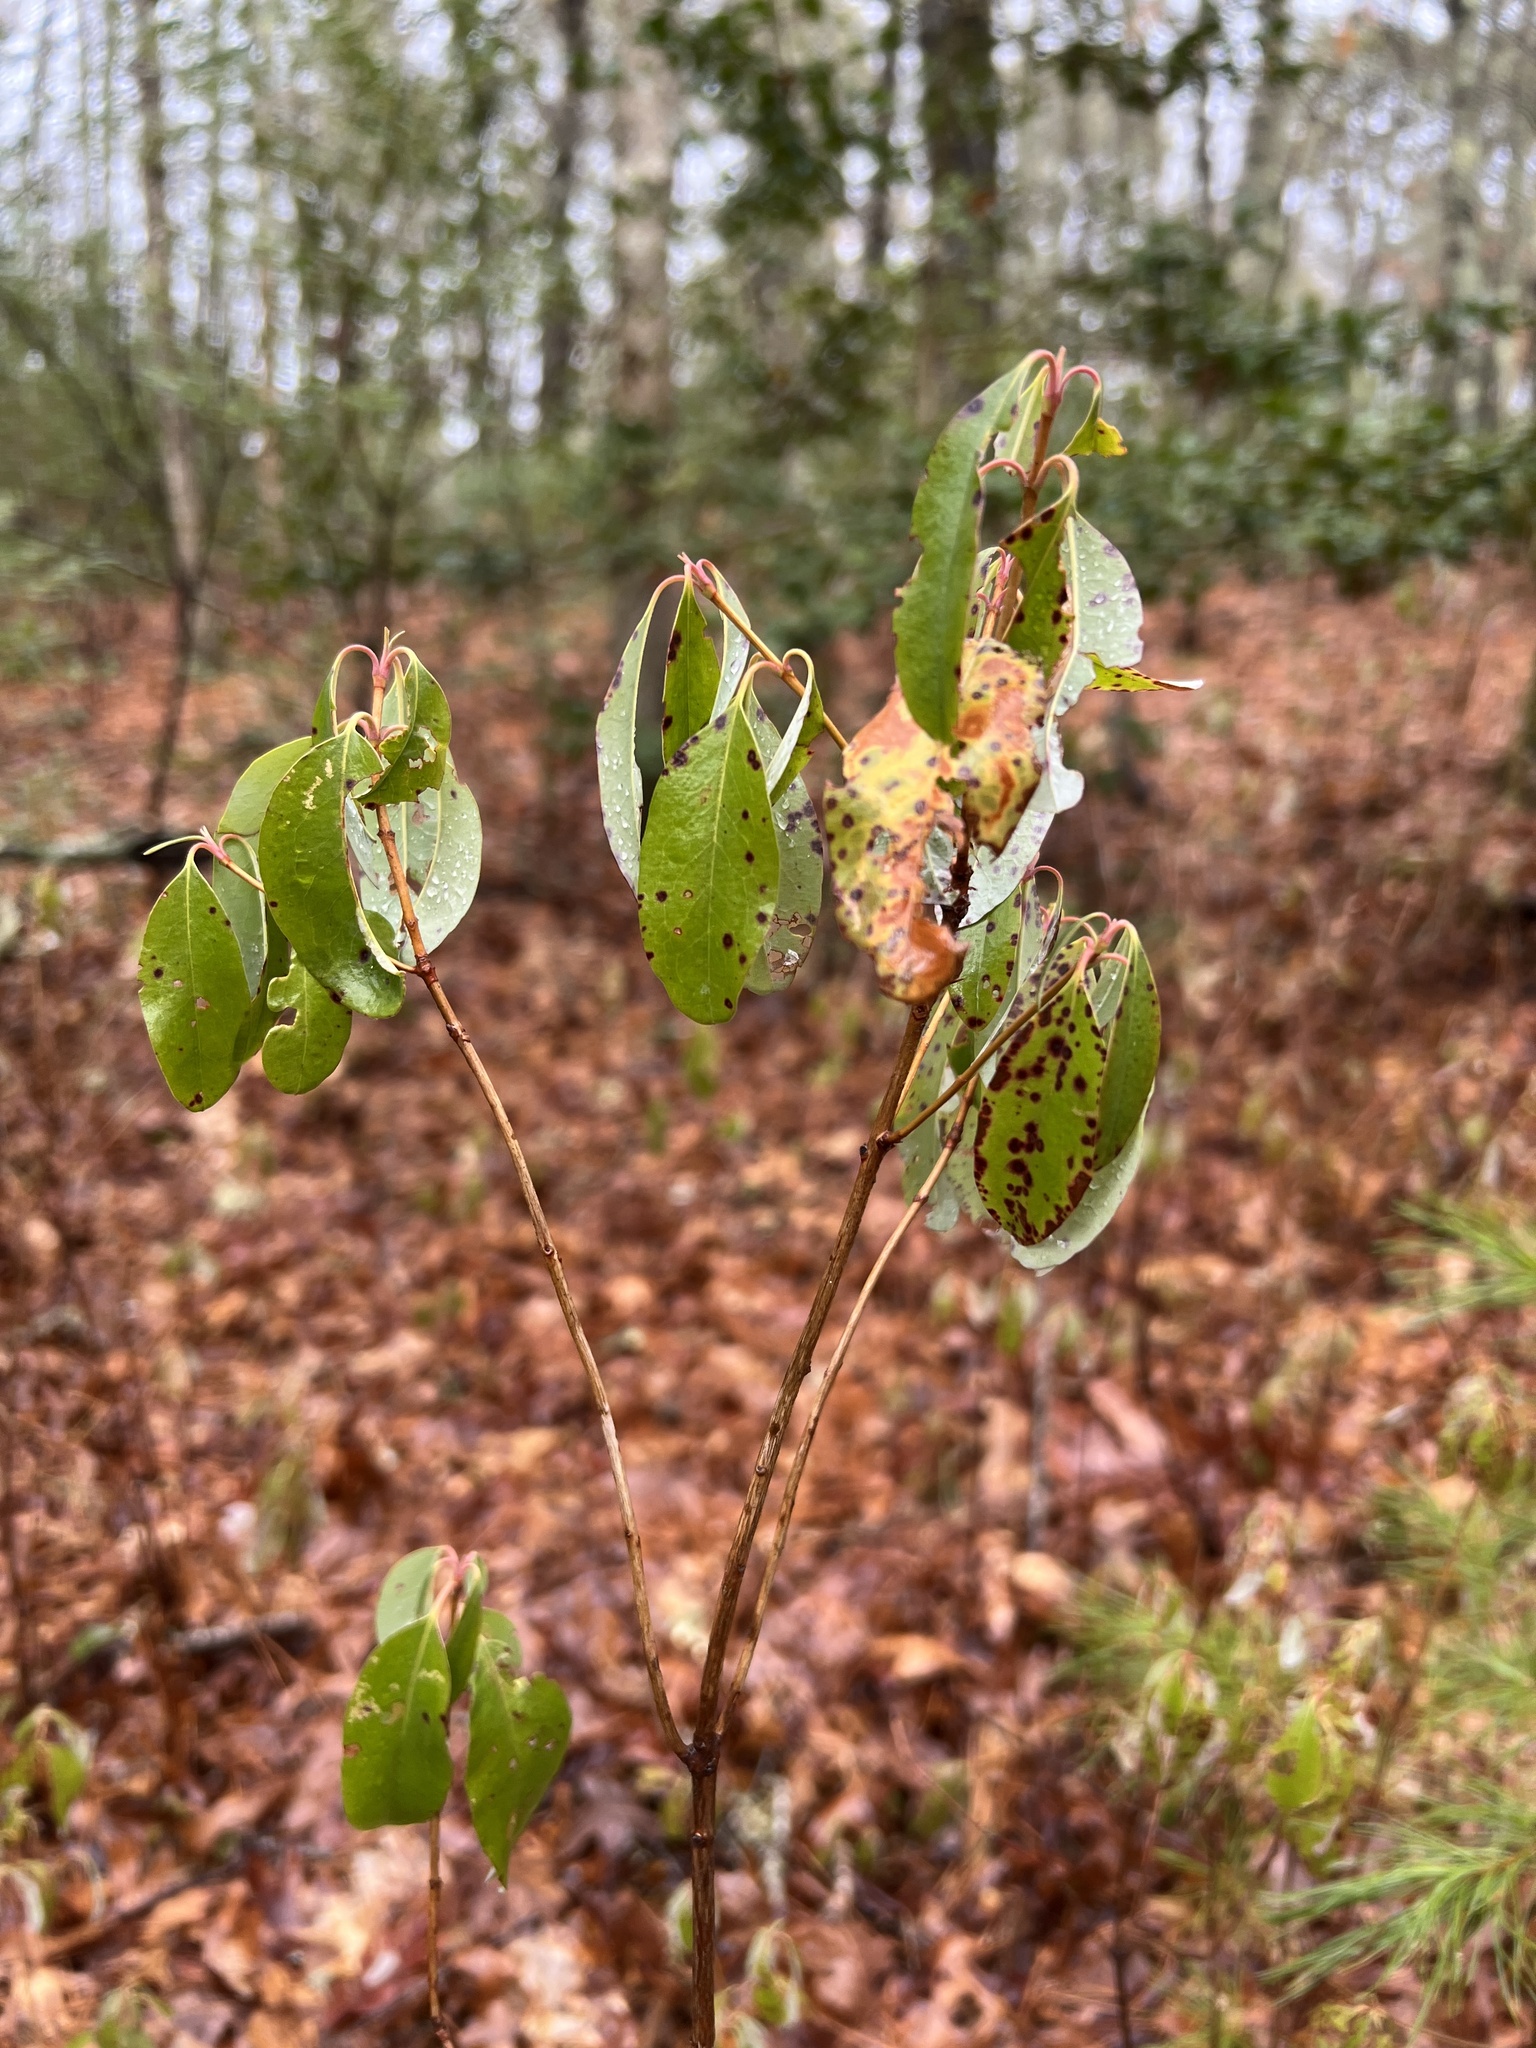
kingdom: Plantae
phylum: Tracheophyta
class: Magnoliopsida
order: Ericales
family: Ericaceae
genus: Kalmia
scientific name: Kalmia angustifolia
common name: Sheep-laurel
